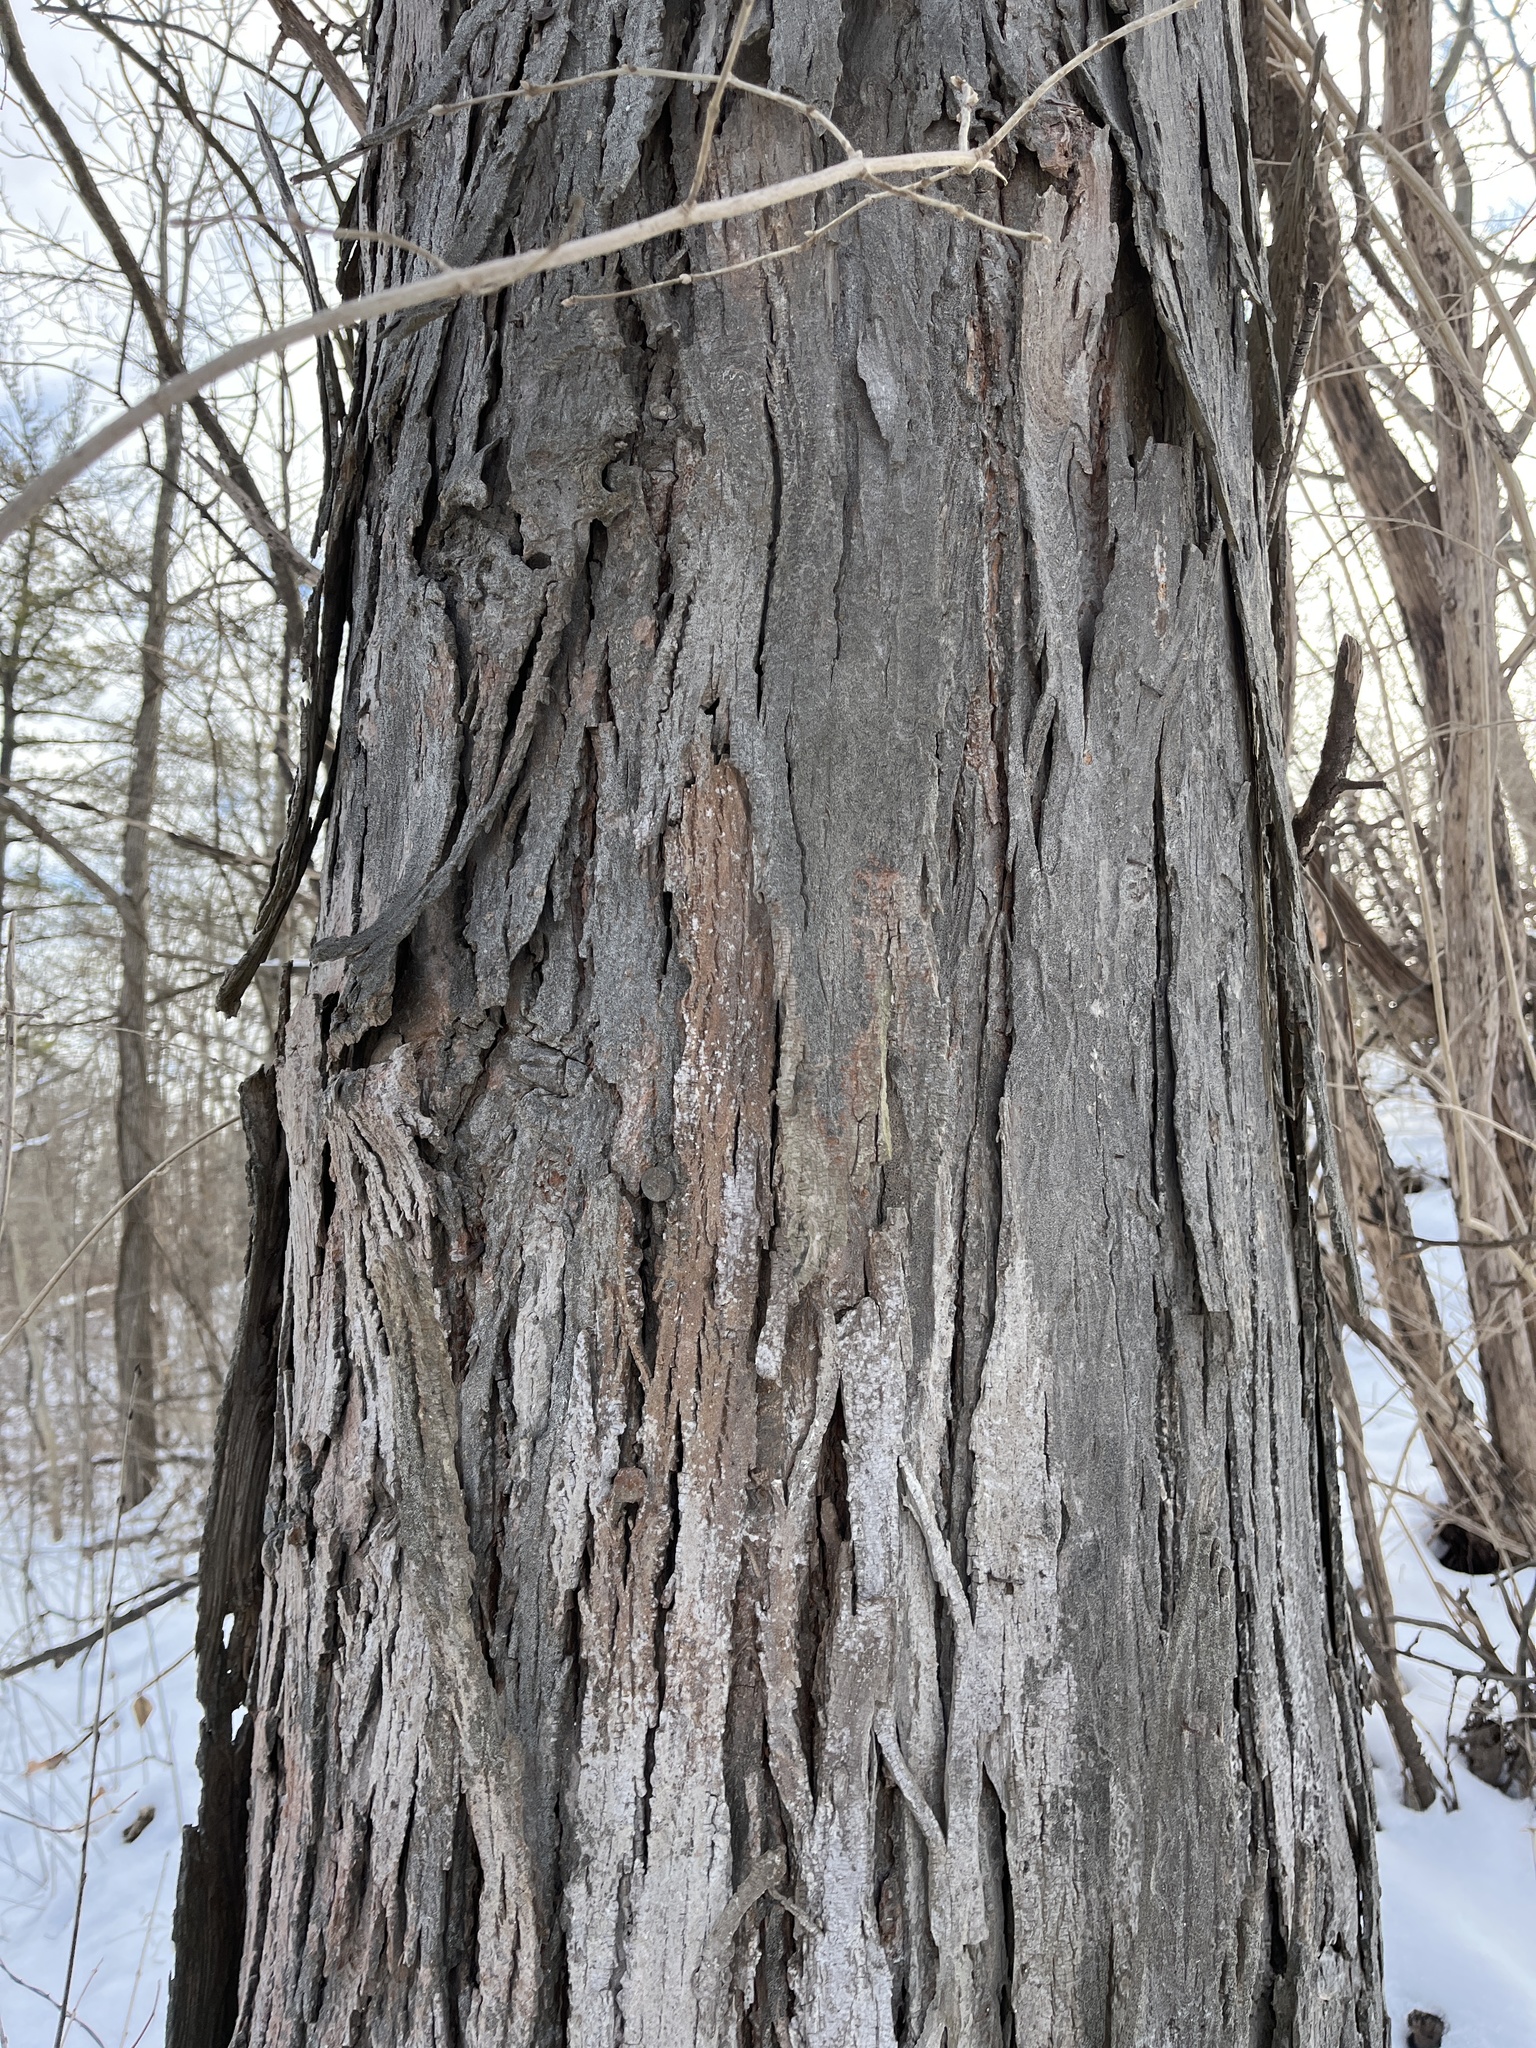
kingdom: Plantae
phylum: Tracheophyta
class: Magnoliopsida
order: Fagales
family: Juglandaceae
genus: Carya
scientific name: Carya ovata
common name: Shagbark hickory
